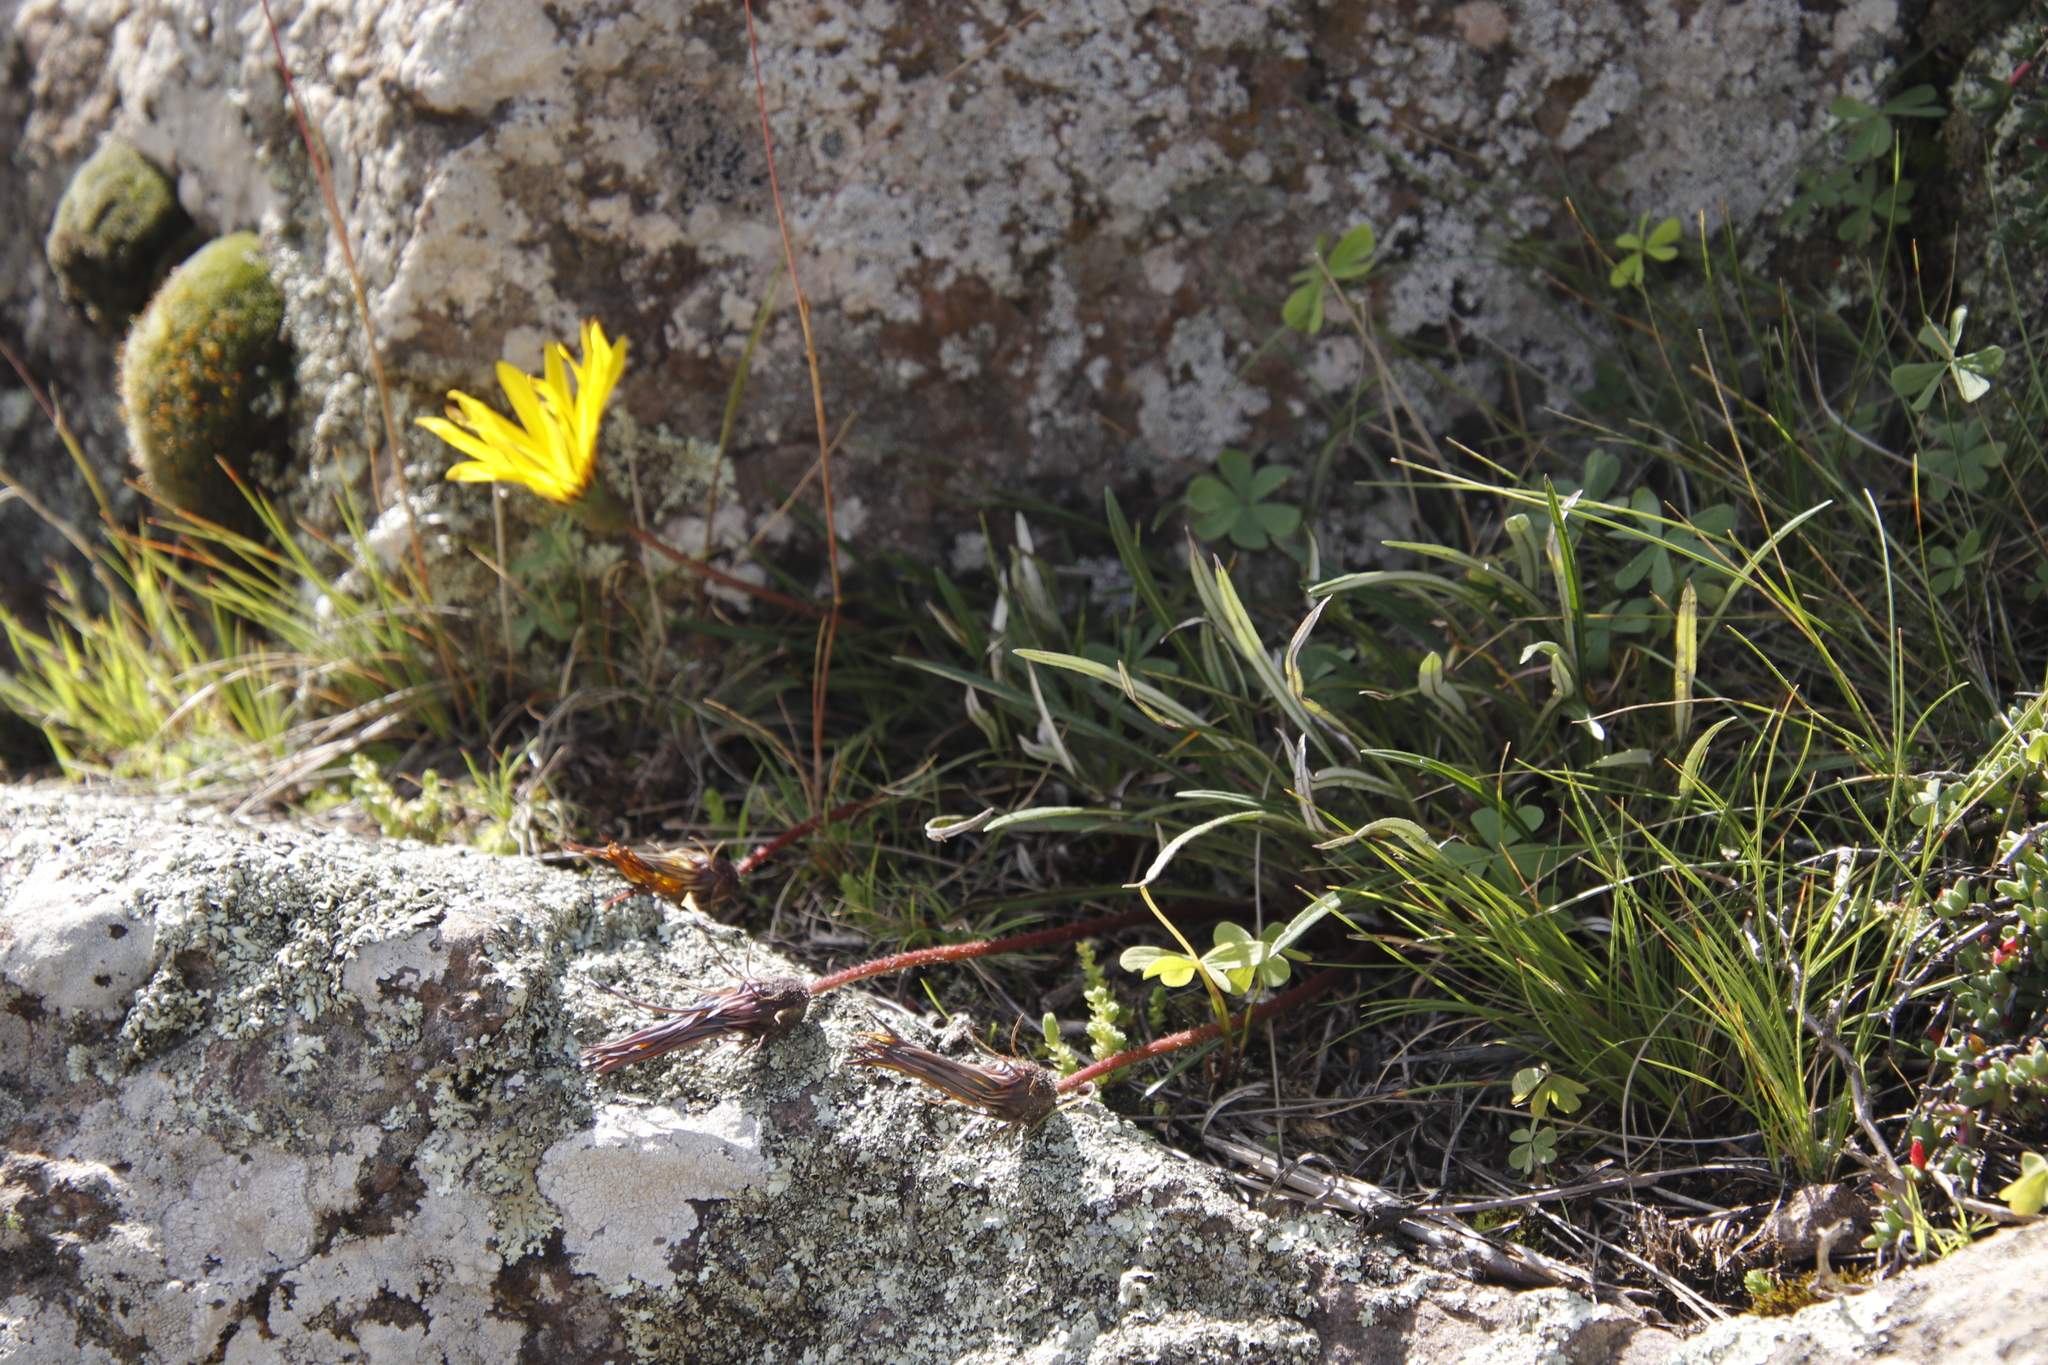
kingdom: Plantae
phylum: Tracheophyta
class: Magnoliopsida
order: Asterales
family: Asteraceae
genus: Gazania
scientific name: Gazania krebsiana
